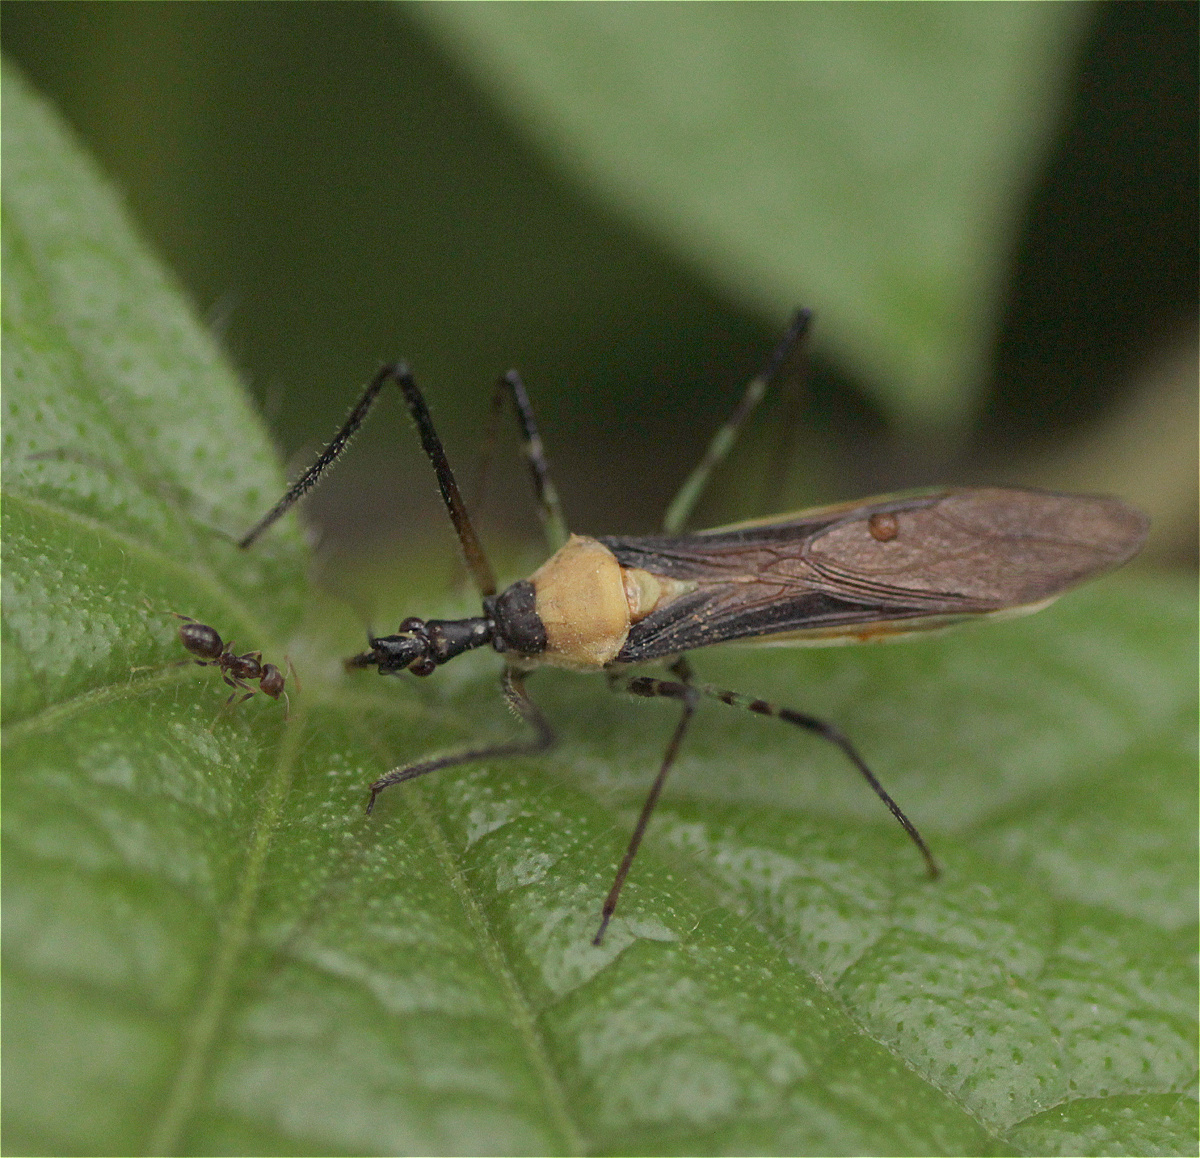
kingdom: Animalia
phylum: Arthropoda
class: Insecta
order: Hemiptera
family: Reduviidae
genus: Zelus
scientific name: Zelus inconstans
